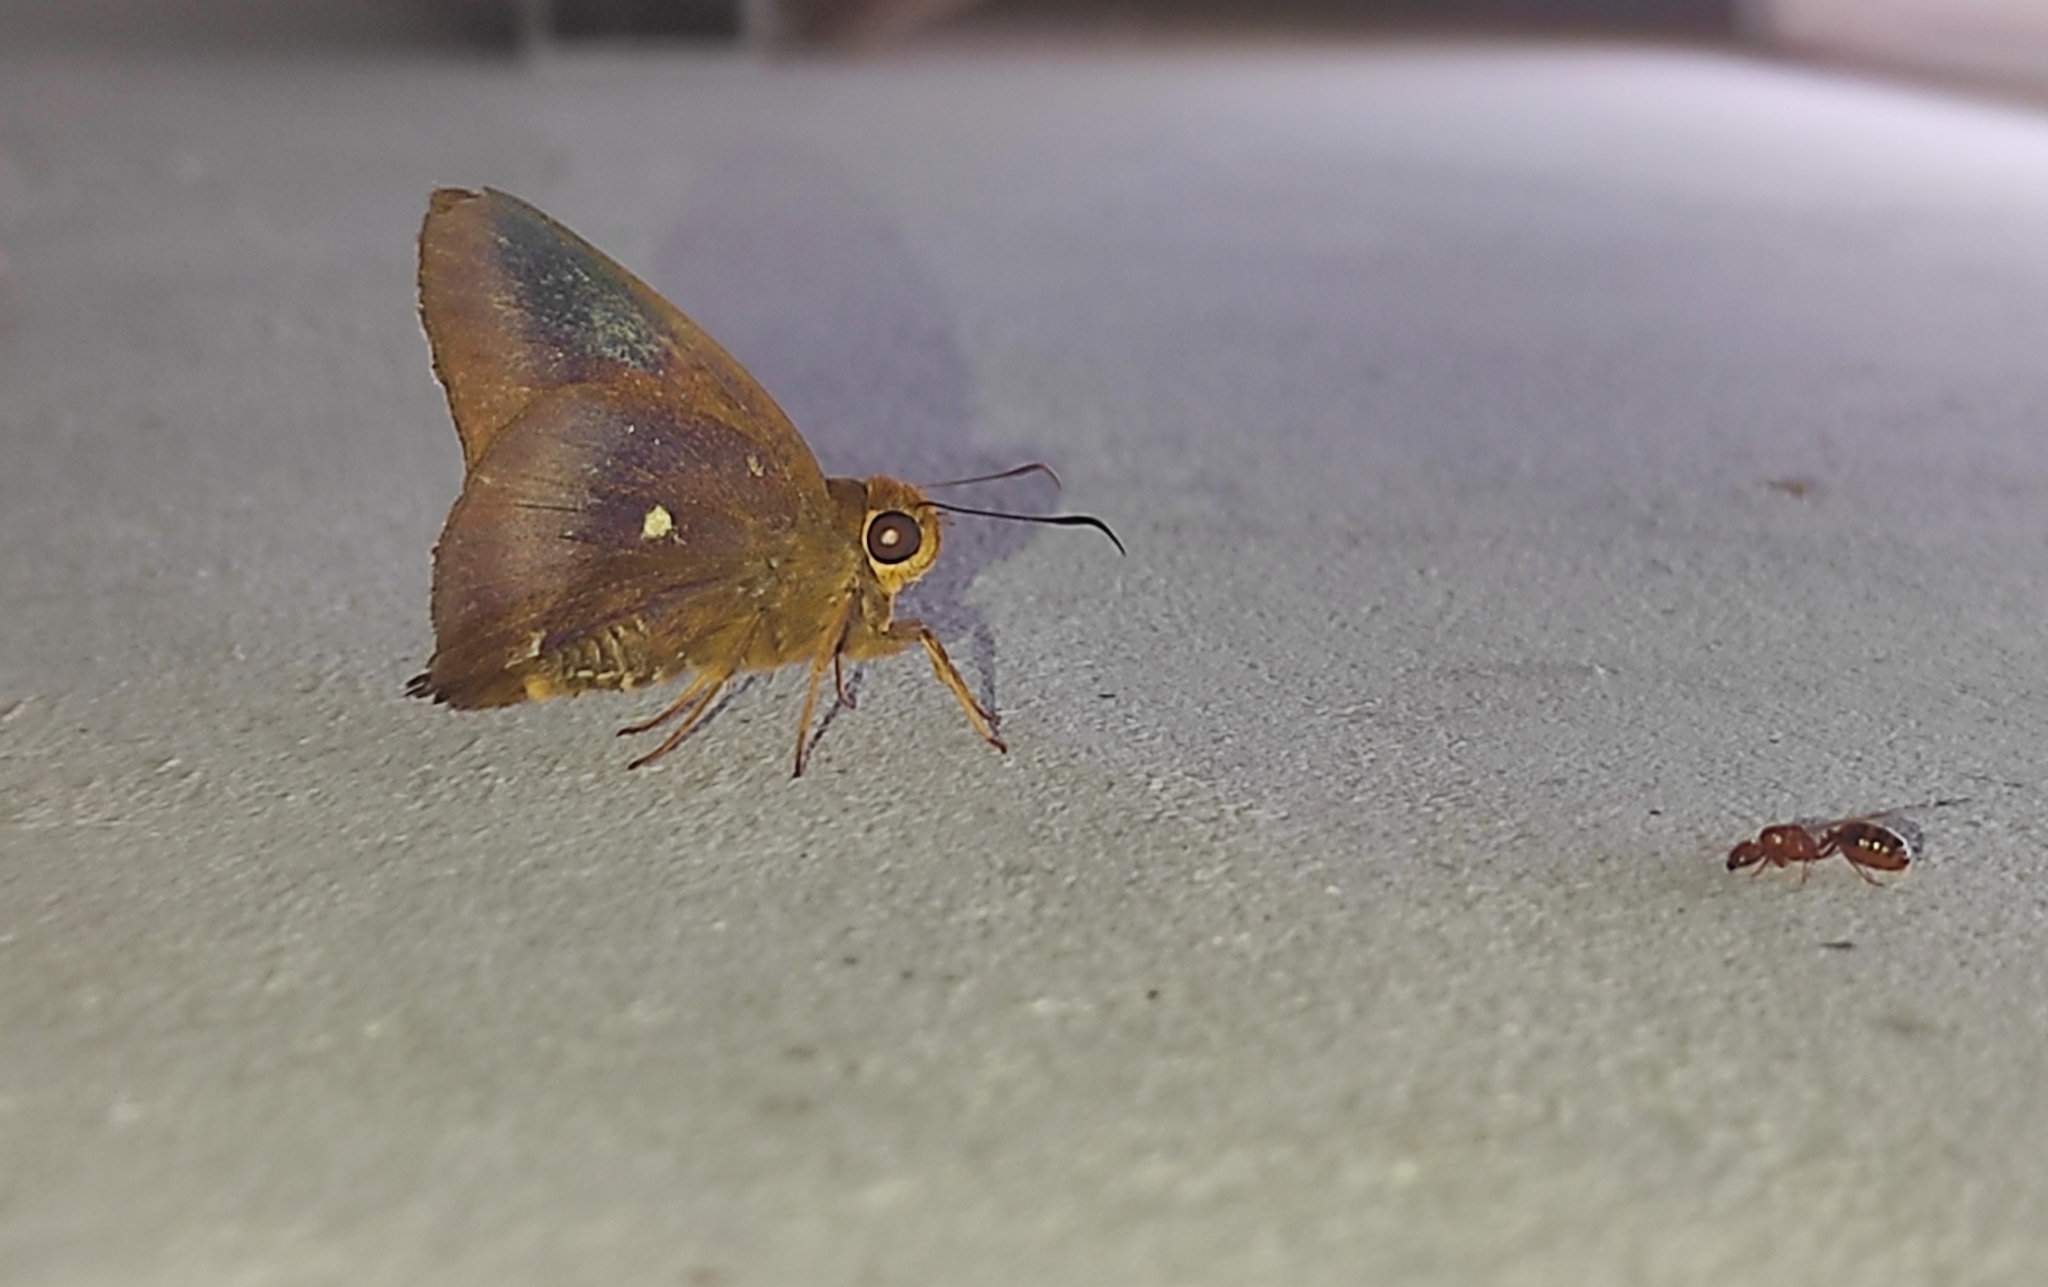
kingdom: Animalia
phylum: Arthropoda
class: Insecta
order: Lepidoptera
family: Hesperiidae
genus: Hasora
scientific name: Hasora badra
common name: Common awl
